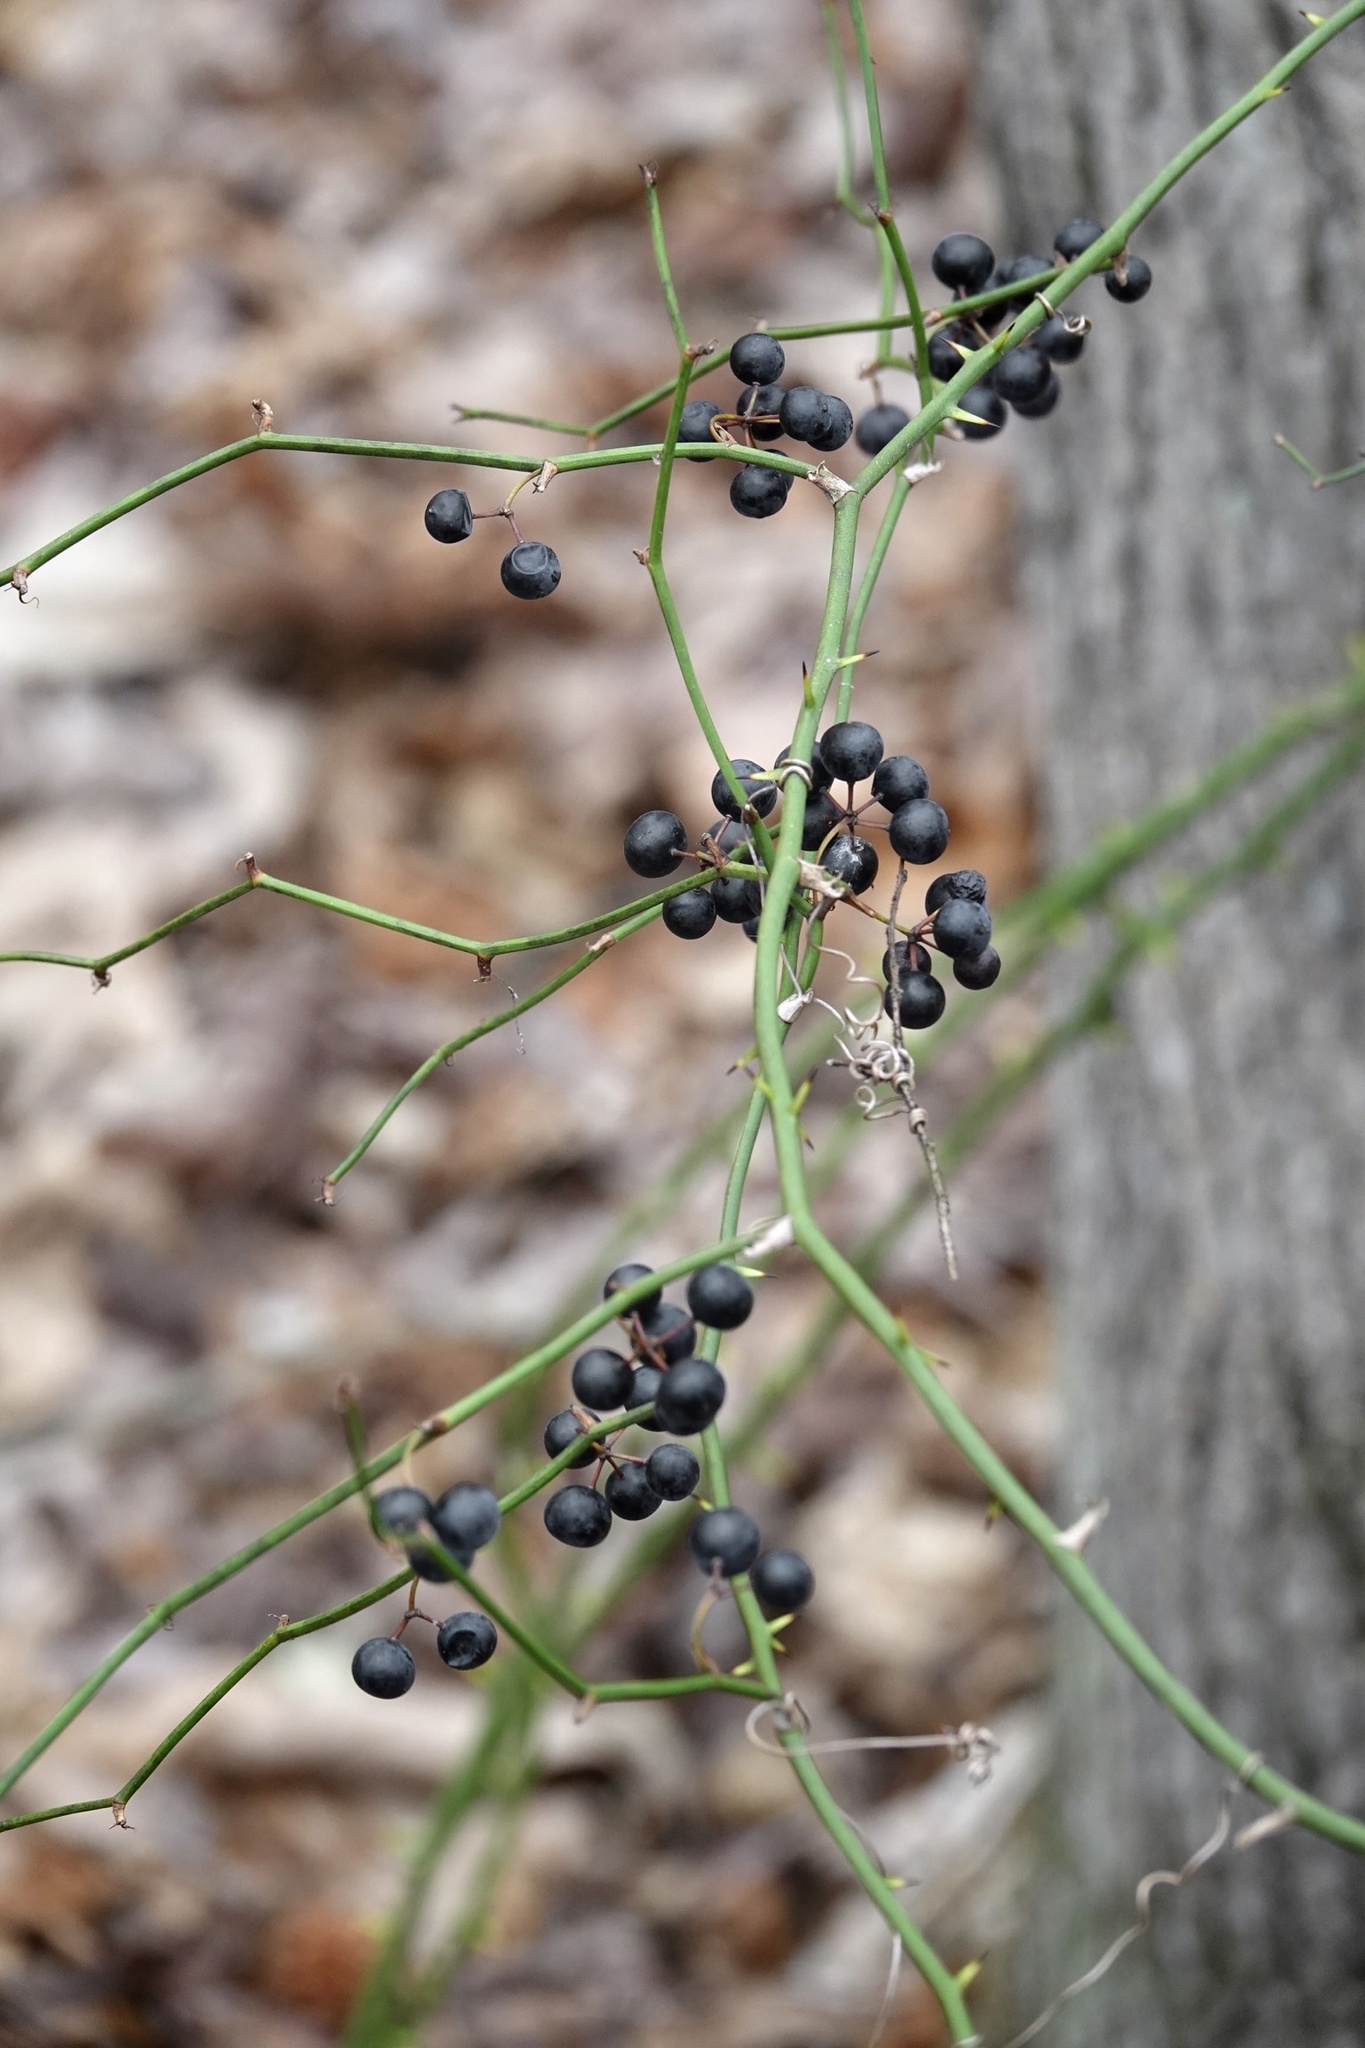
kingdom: Plantae
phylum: Tracheophyta
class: Liliopsida
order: Liliales
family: Smilacaceae
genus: Smilax
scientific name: Smilax rotundifolia
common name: Bullbriar
